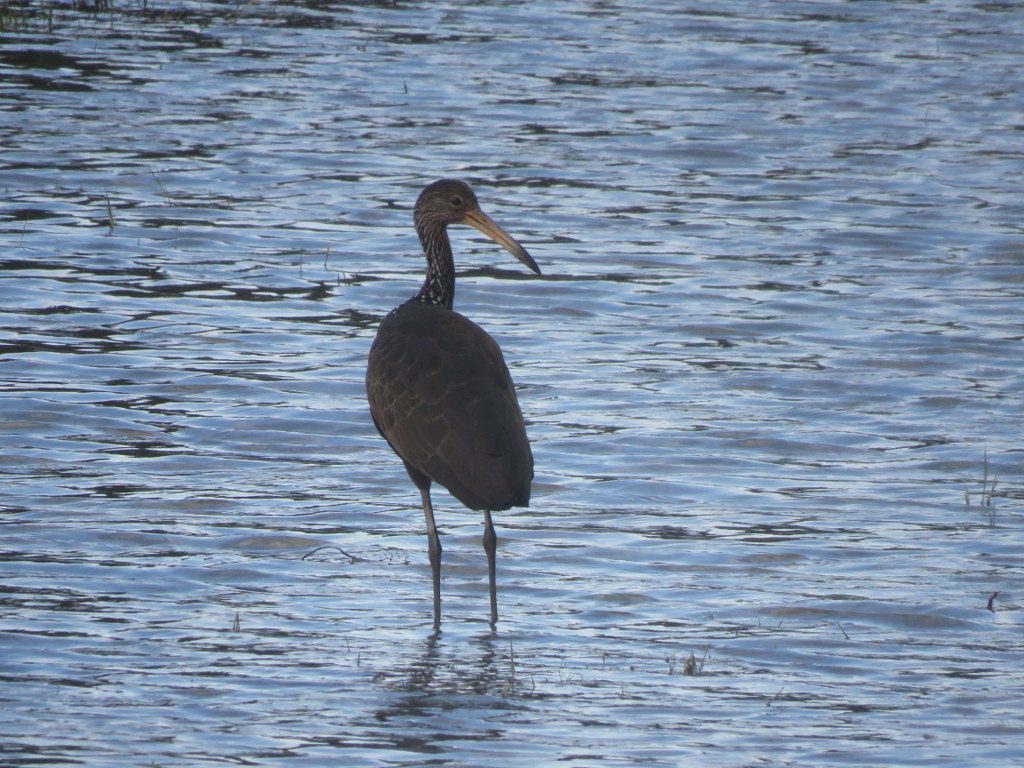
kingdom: Animalia
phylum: Chordata
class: Aves
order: Gruiformes
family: Aramidae
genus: Aramus
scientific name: Aramus guarauna
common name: Limpkin
